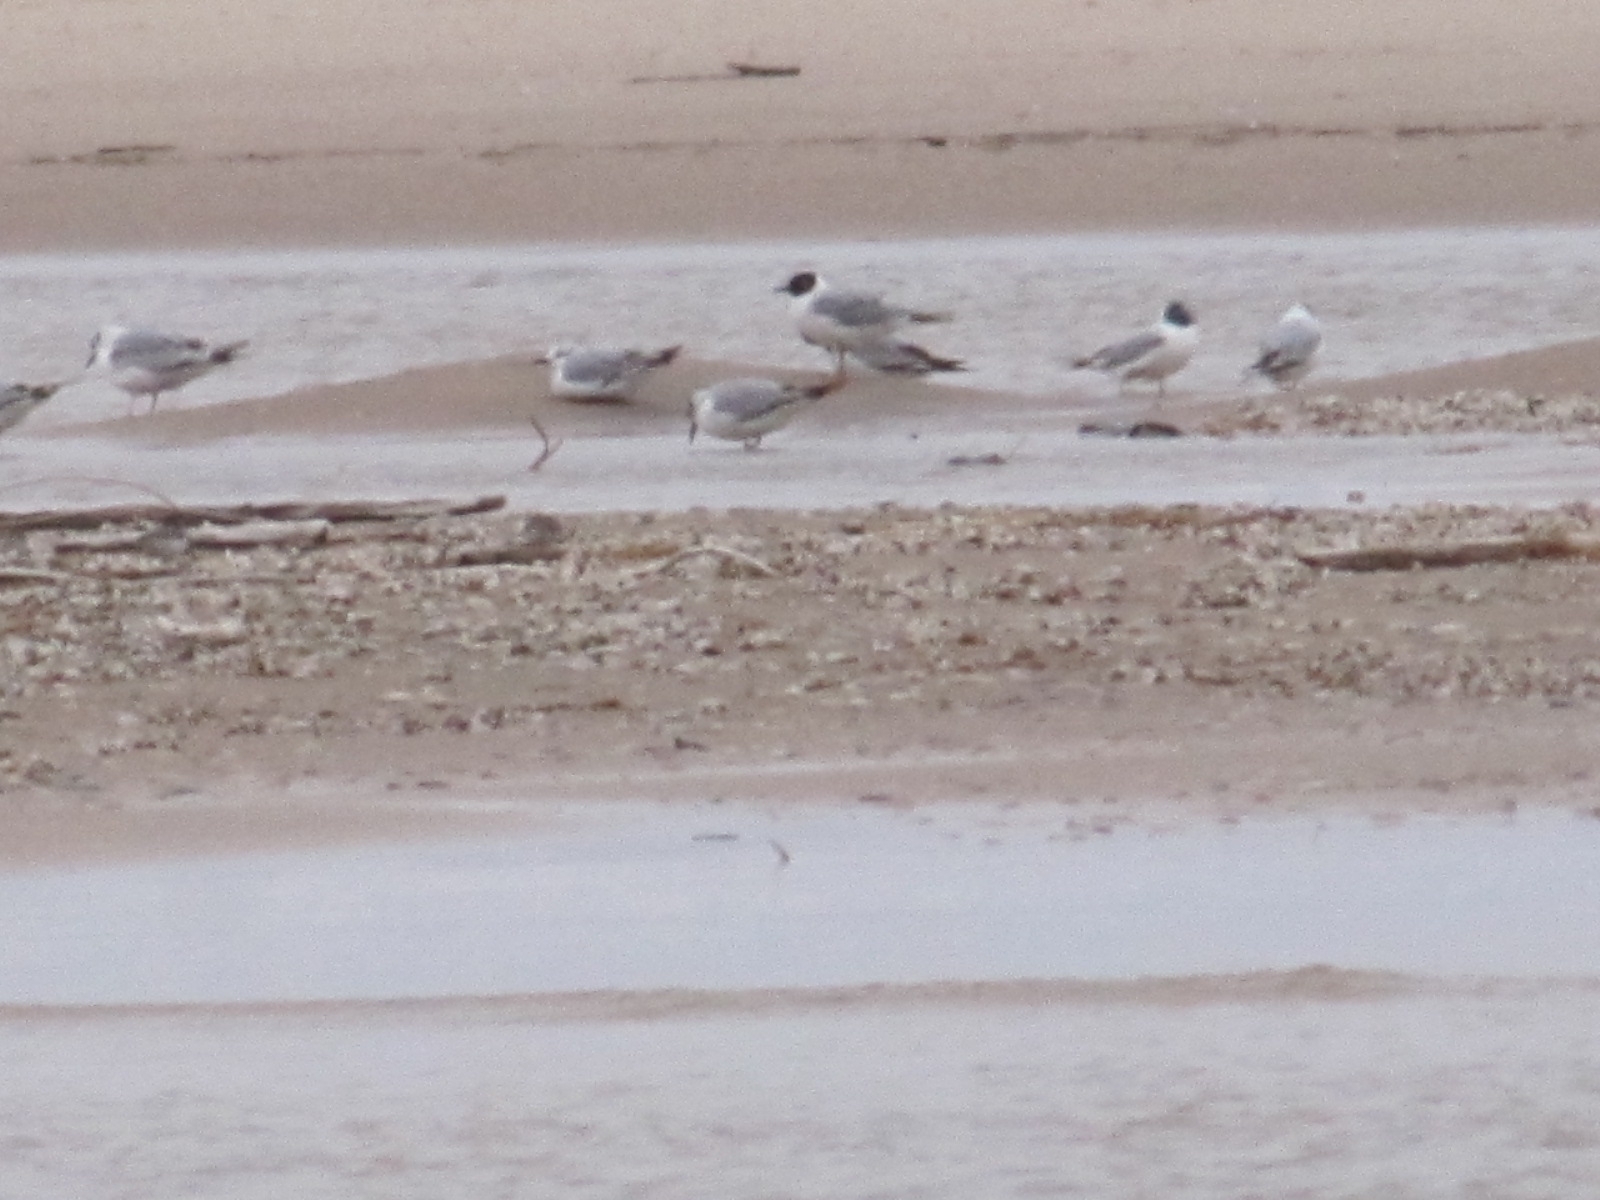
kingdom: Animalia
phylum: Chordata
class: Aves
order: Charadriiformes
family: Laridae
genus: Chroicocephalus
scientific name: Chroicocephalus philadelphia
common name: Bonaparte's gull
